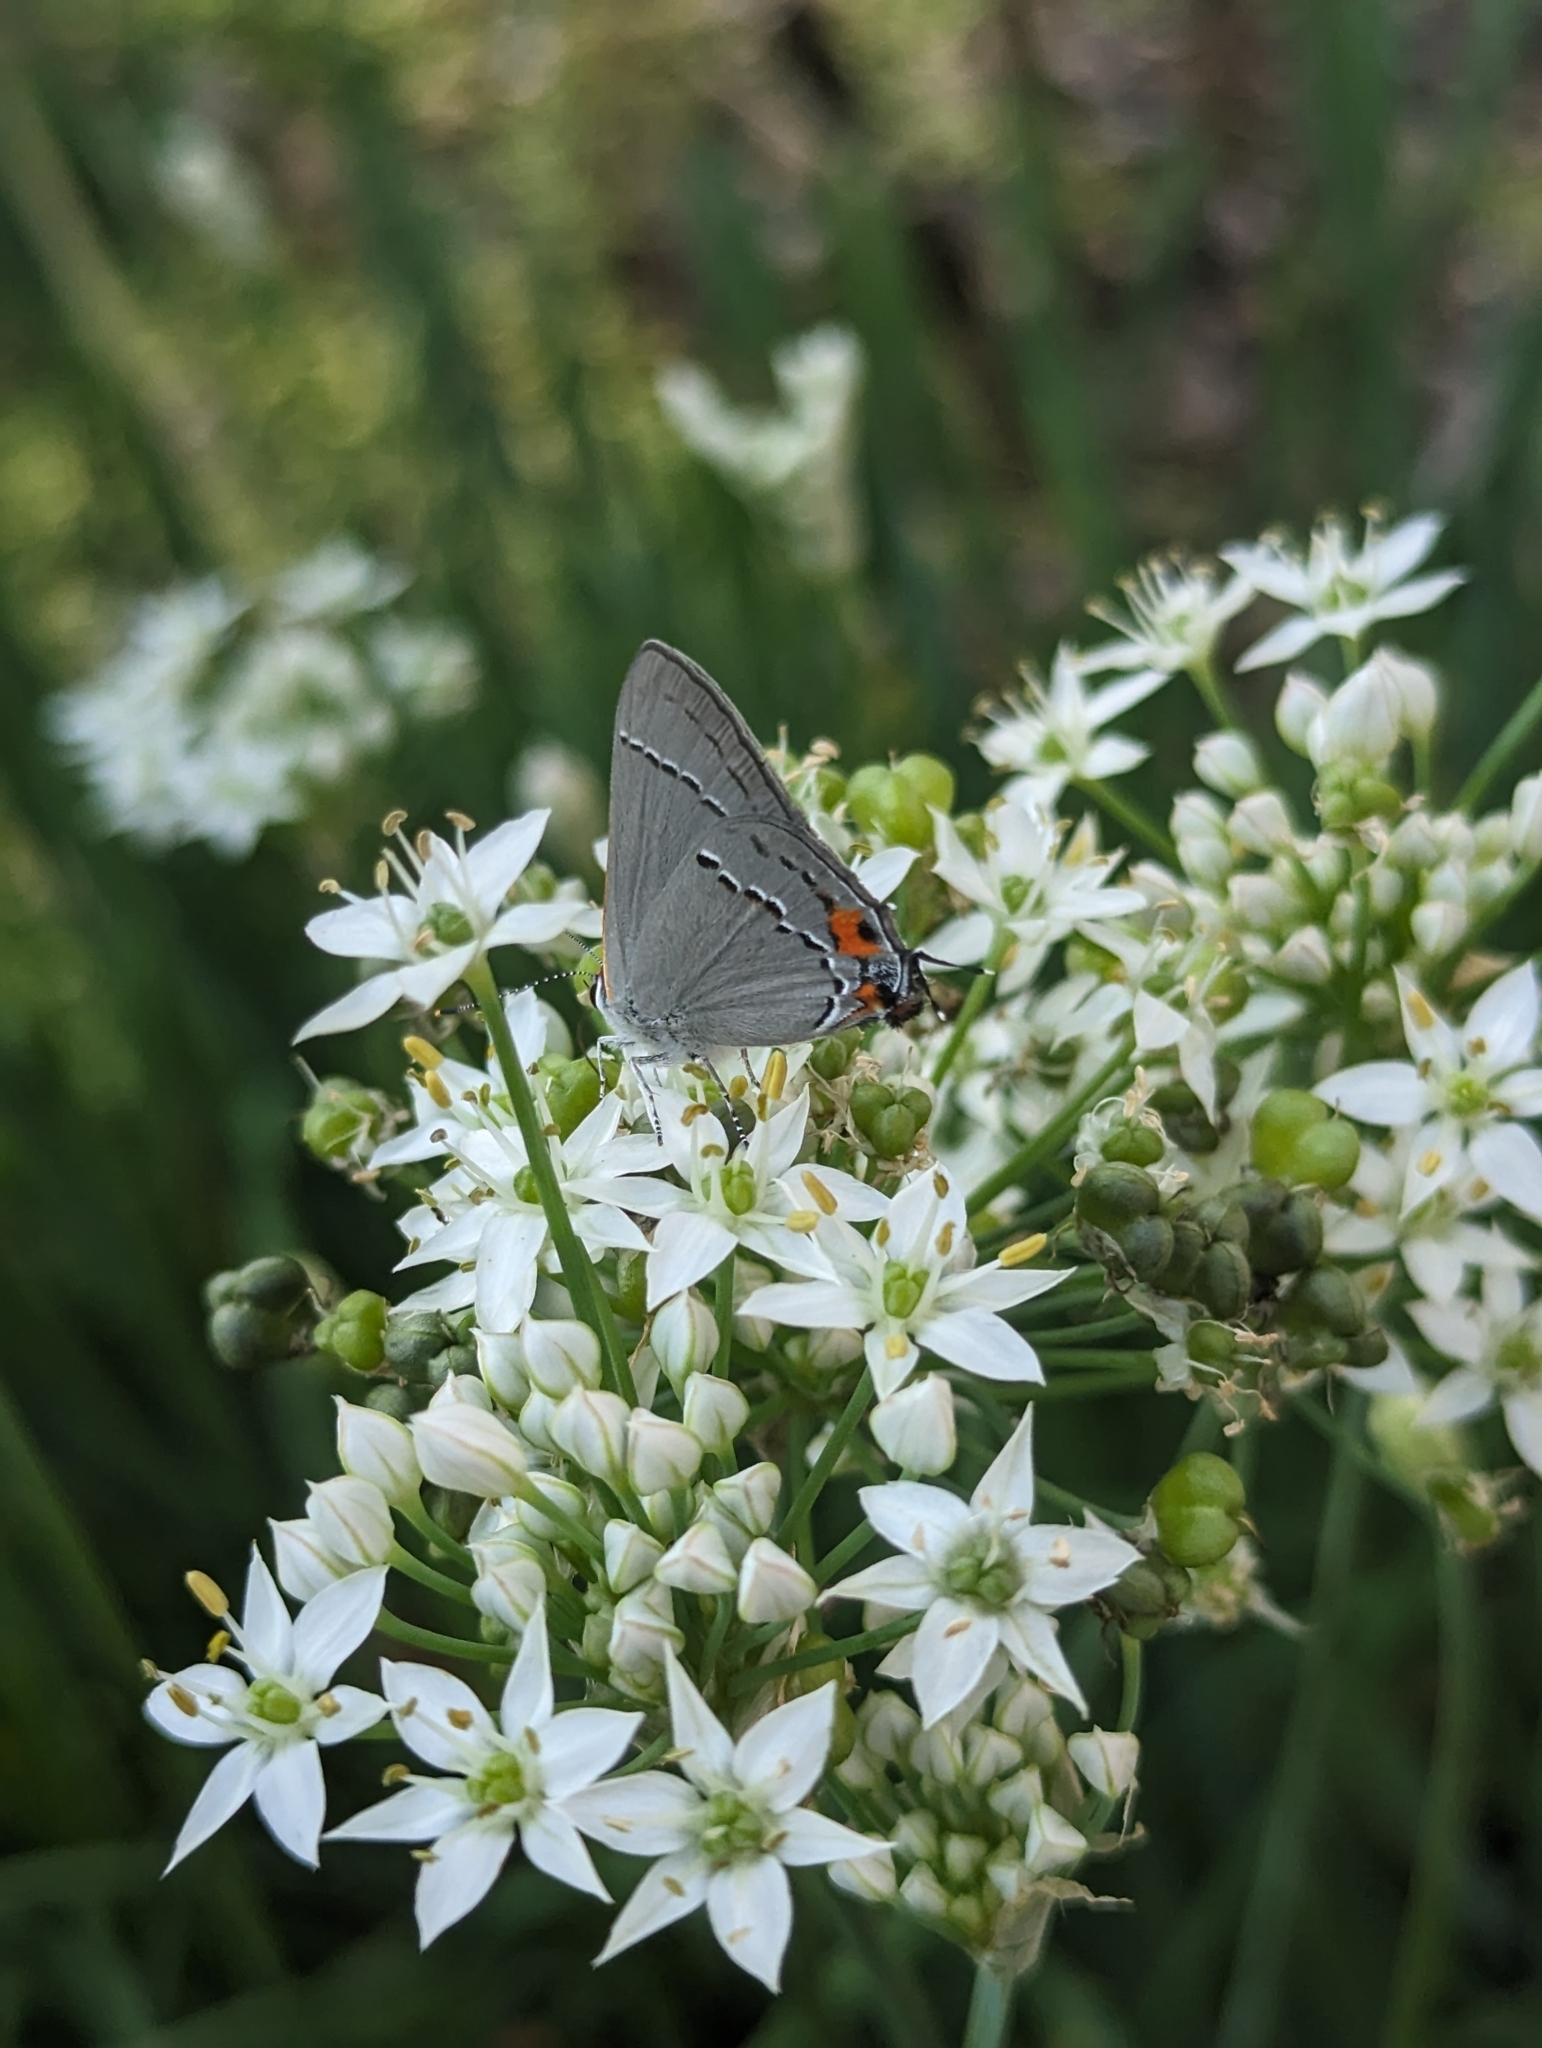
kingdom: Animalia
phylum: Arthropoda
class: Insecta
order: Lepidoptera
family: Lycaenidae
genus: Strymon
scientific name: Strymon melinus
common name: Gray hairstreak
